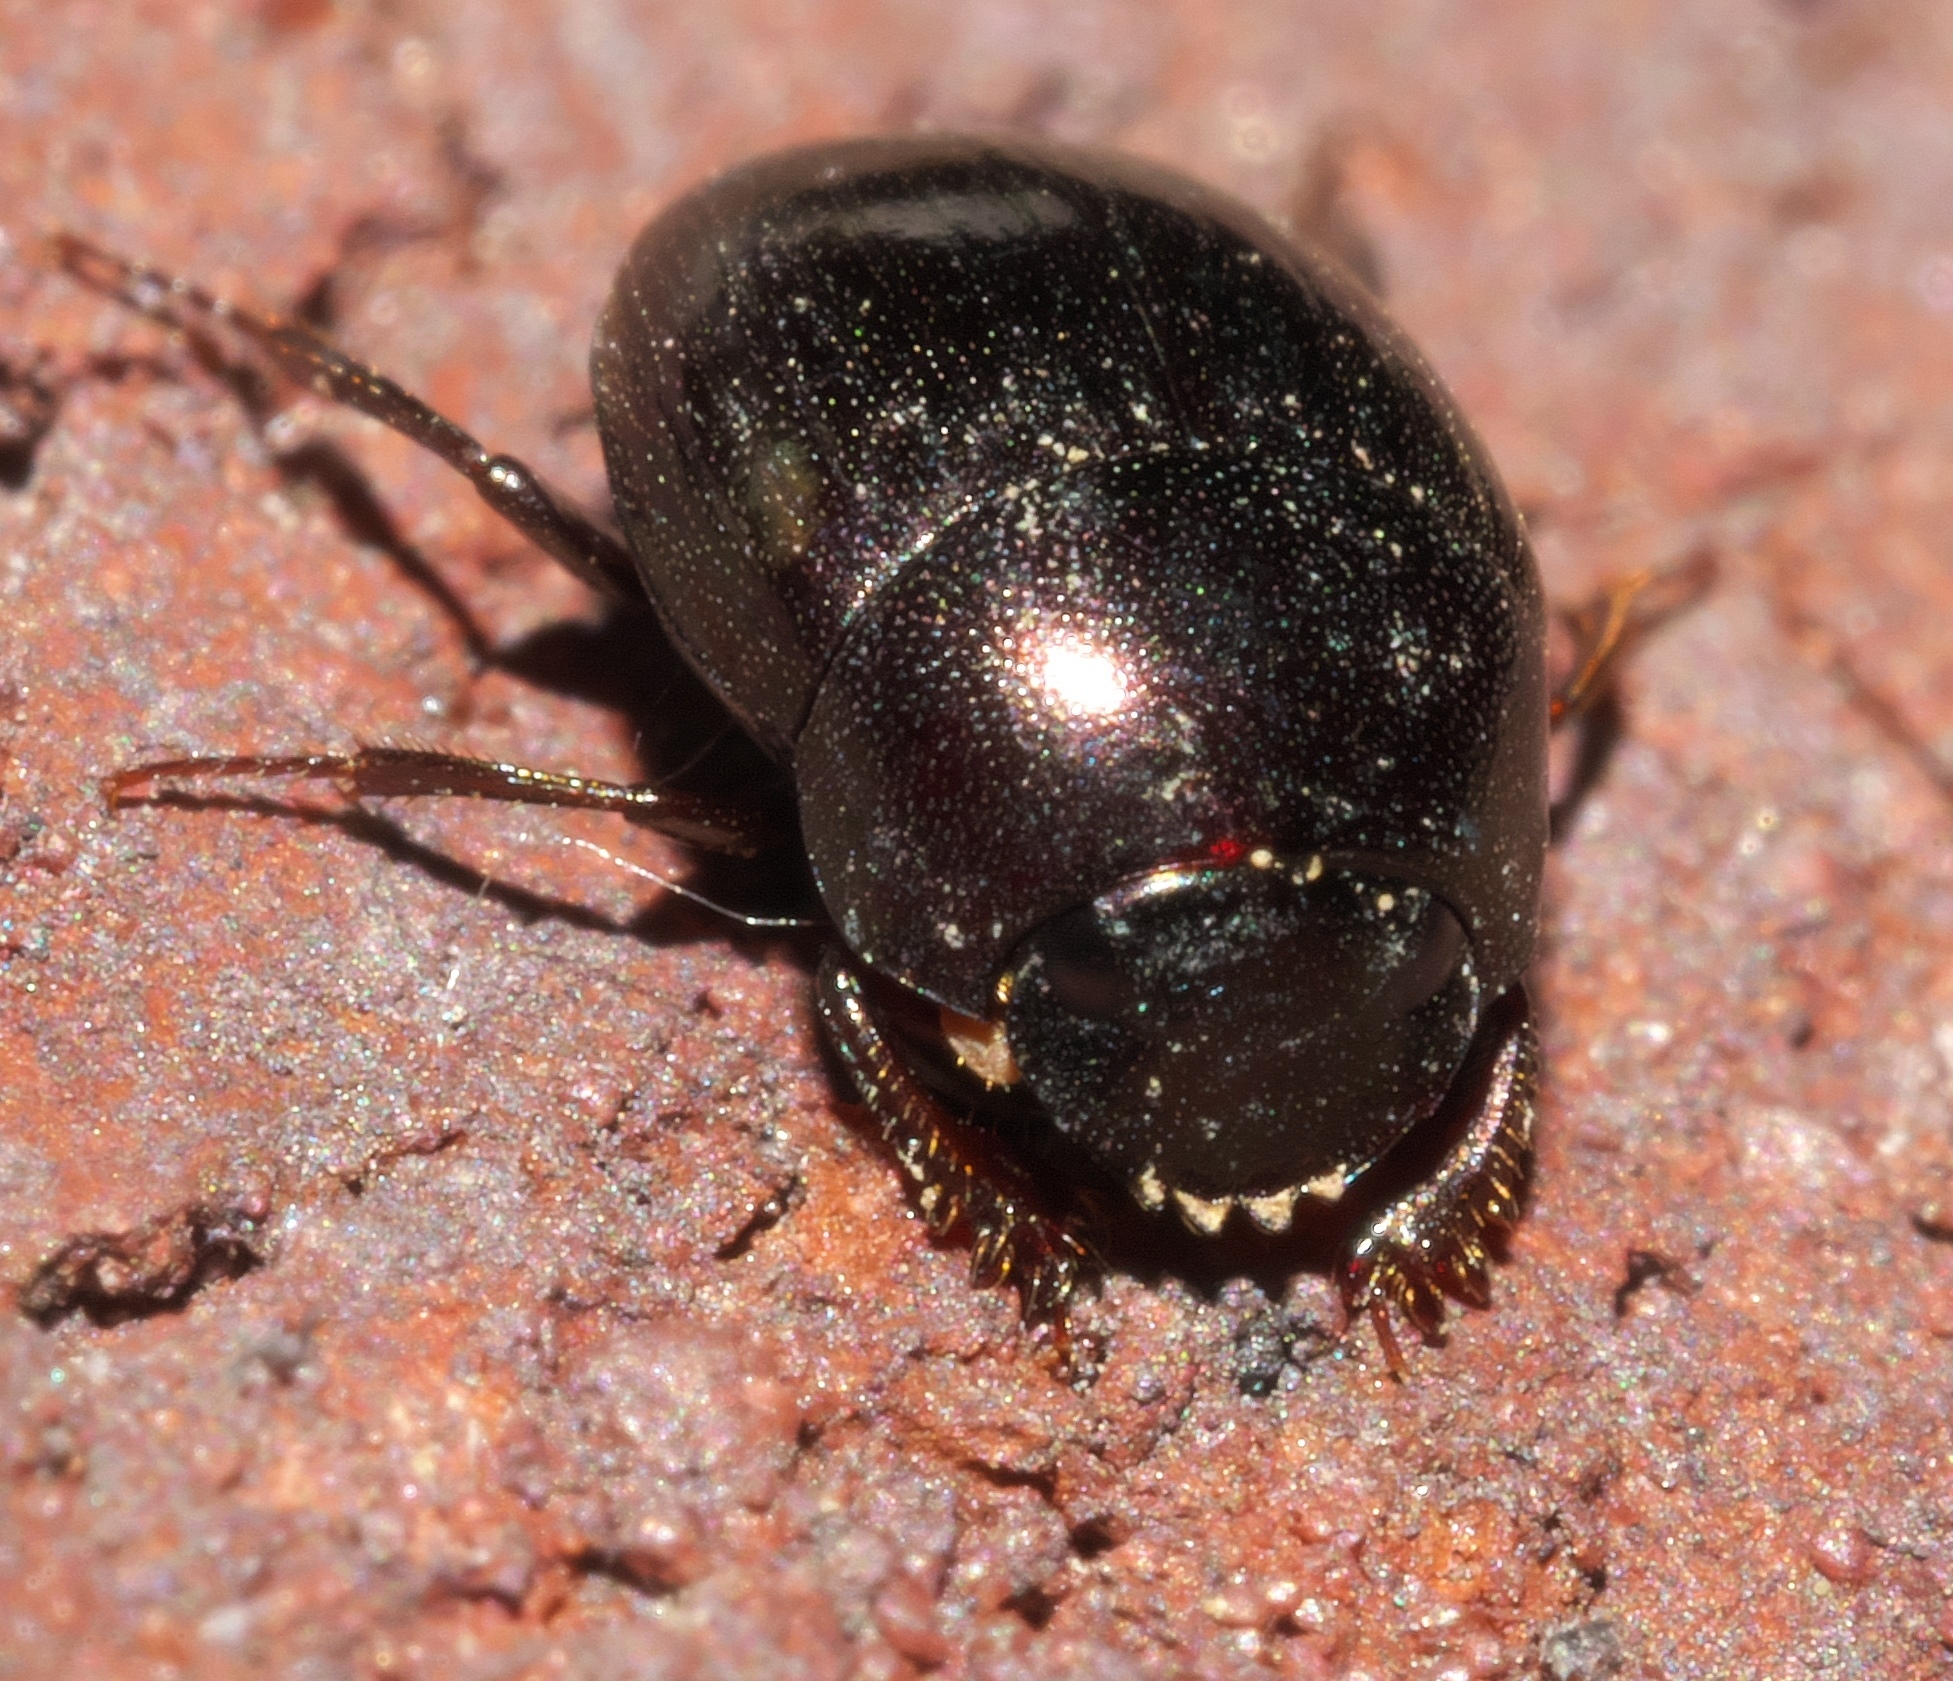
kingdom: Animalia
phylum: Arthropoda
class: Insecta
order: Coleoptera
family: Scarabaeidae
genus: Pseudocanthon
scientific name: Pseudocanthon perplexus
